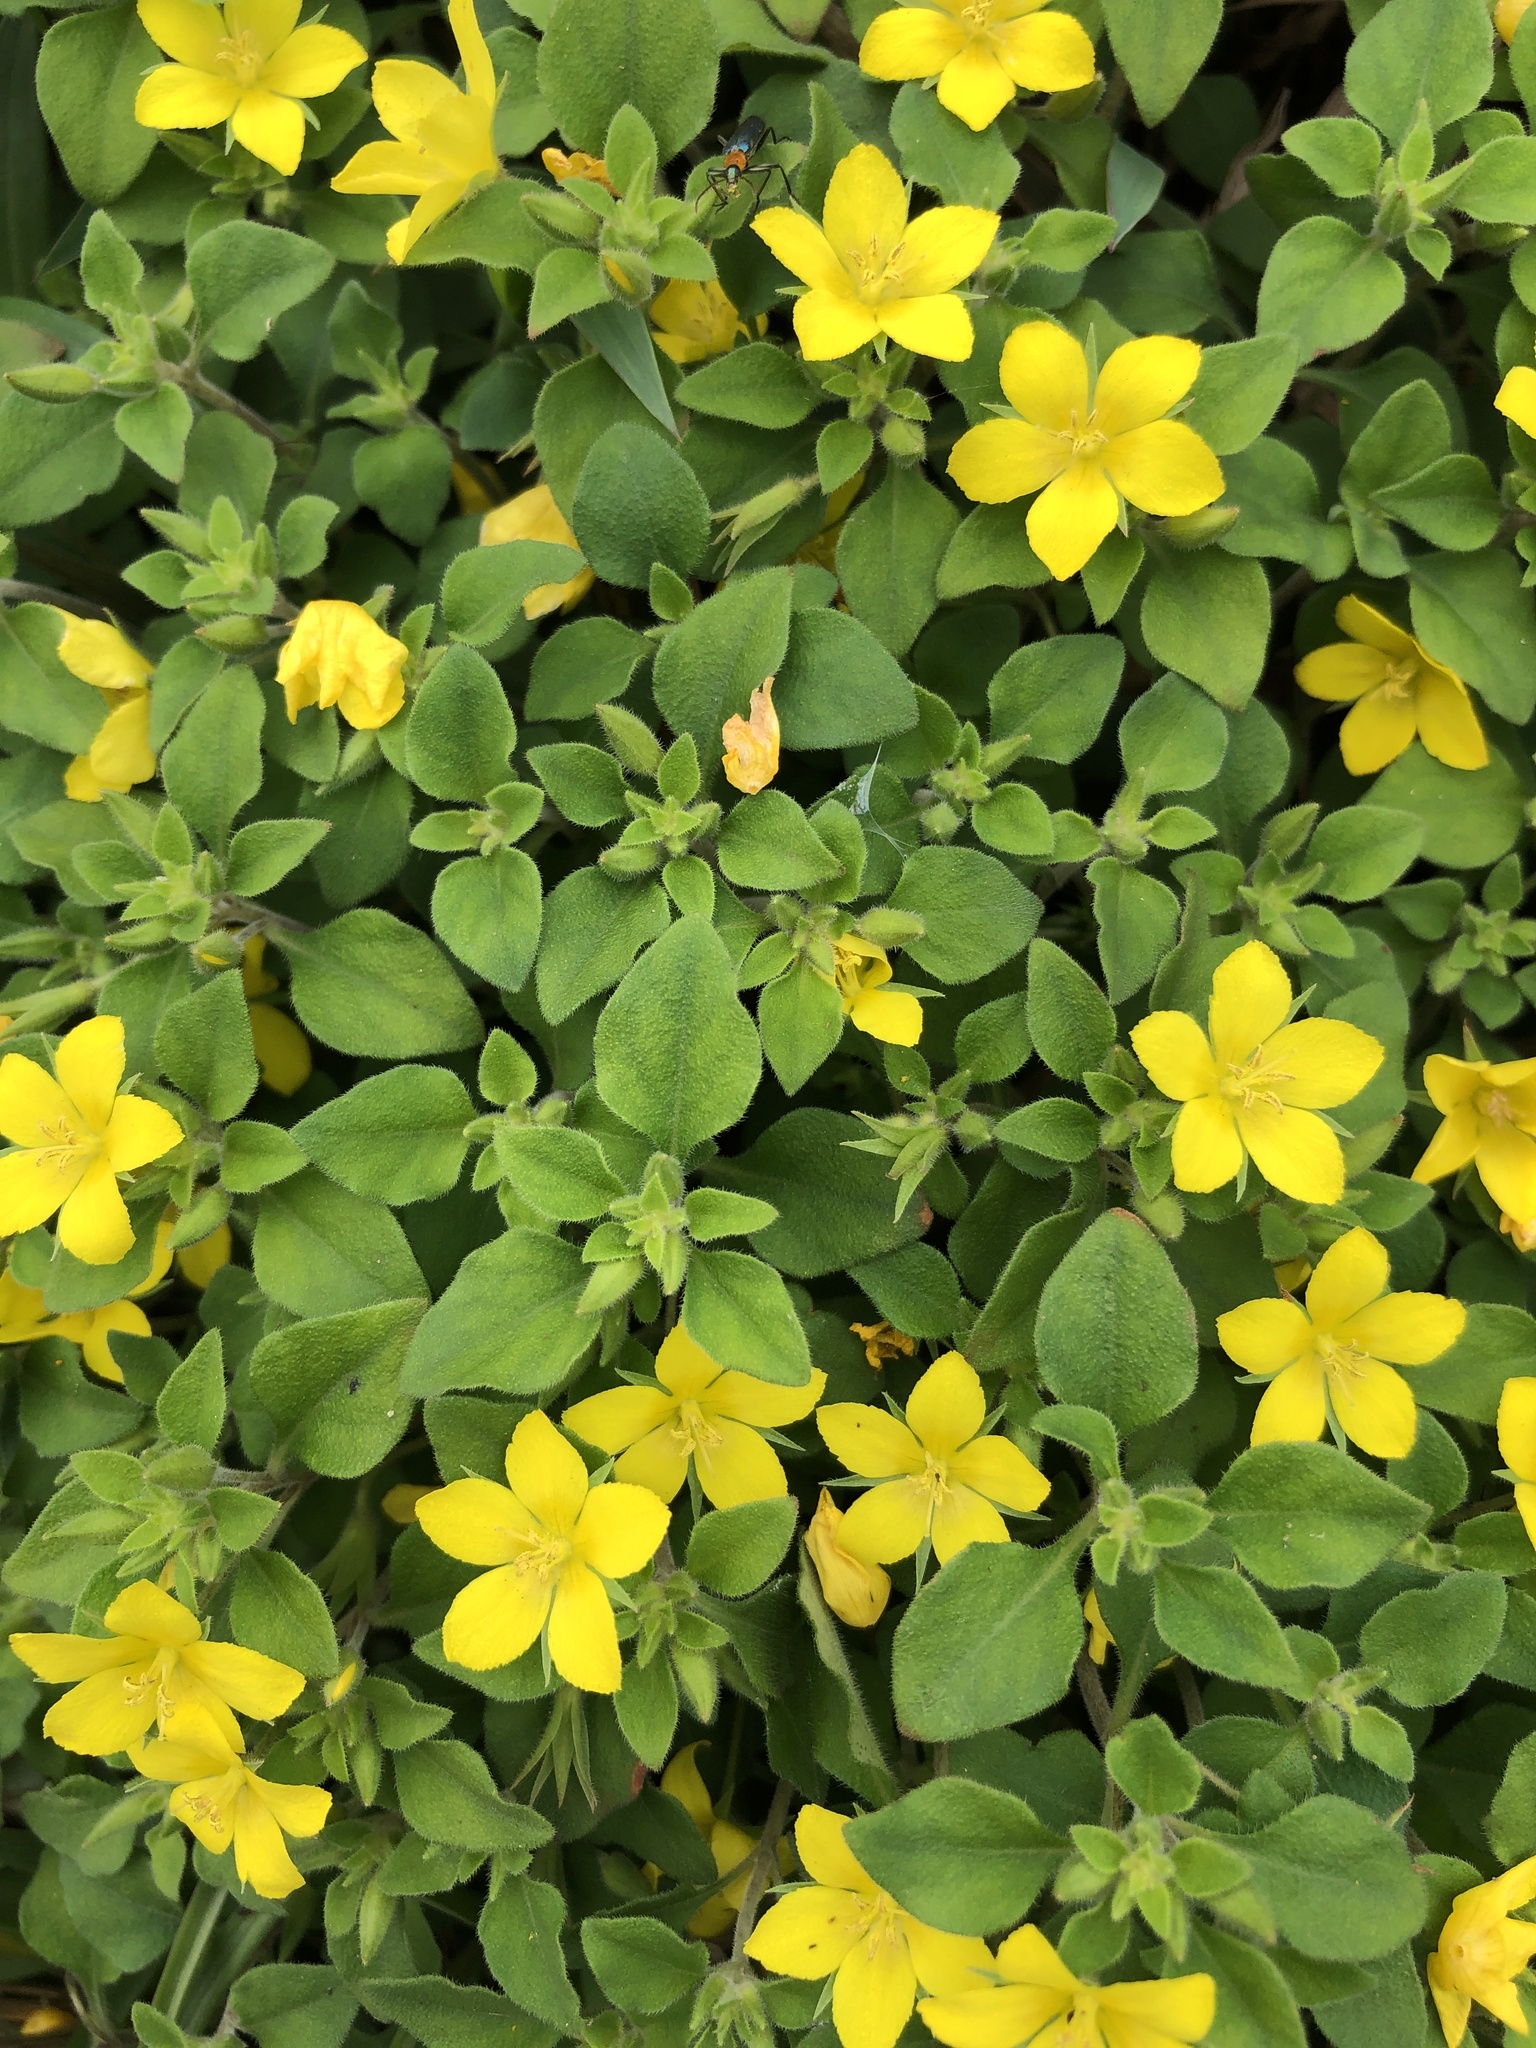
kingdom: Plantae
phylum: Tracheophyta
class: Magnoliopsida
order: Ericales
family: Primulaceae
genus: Lysimachia
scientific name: Lysimachia remota
